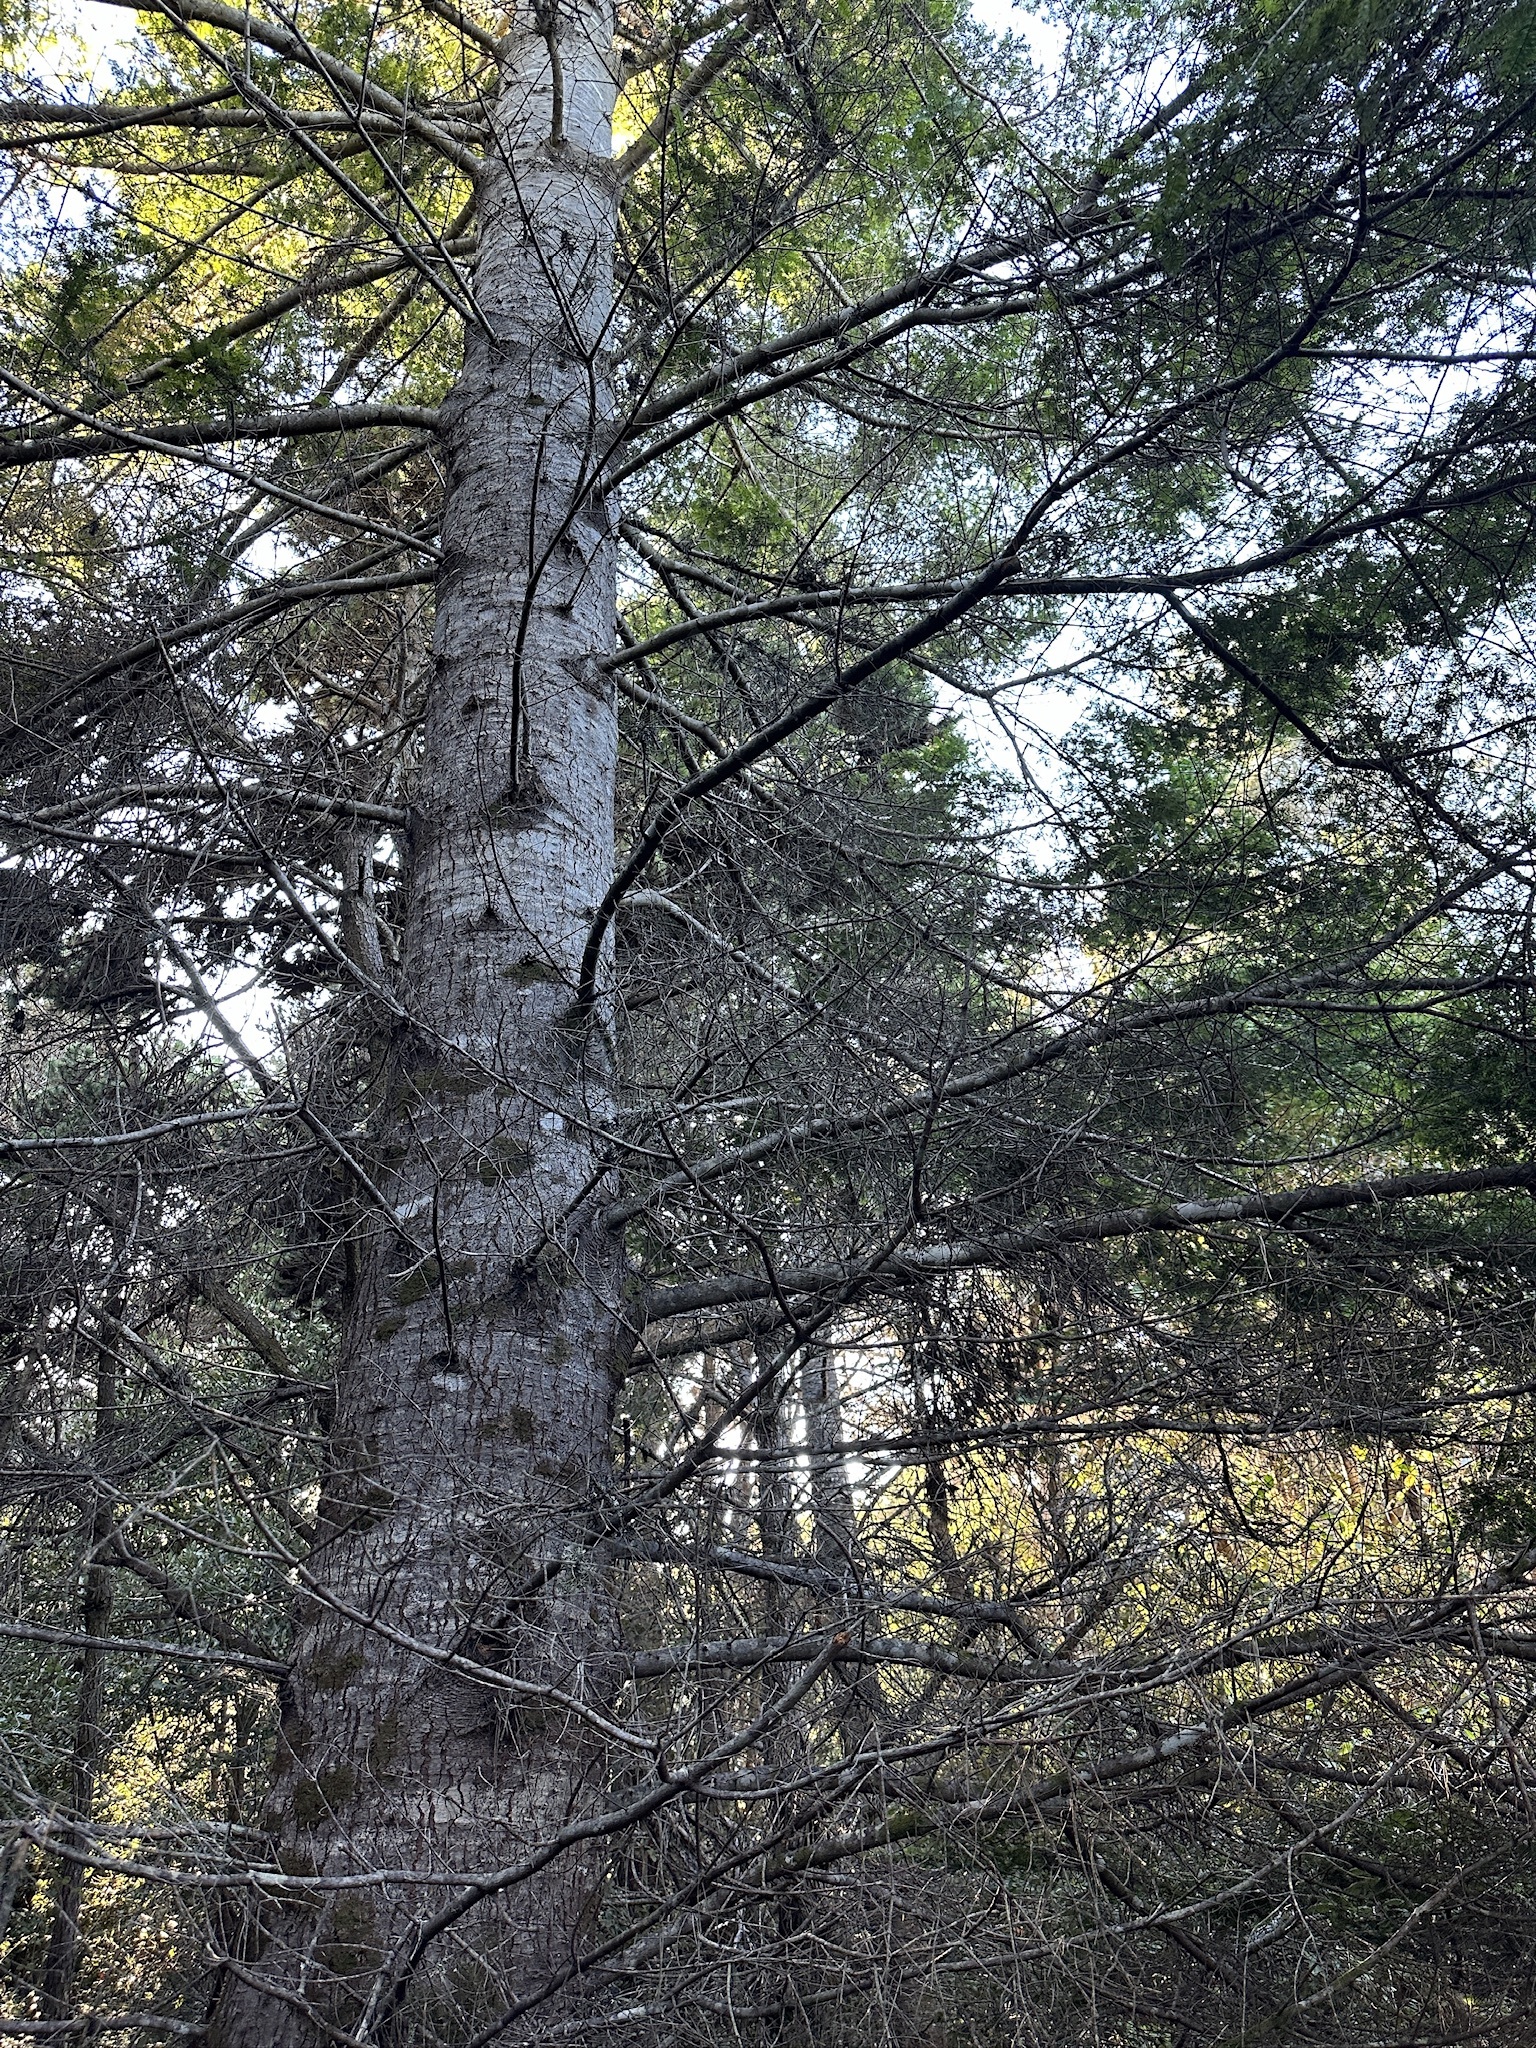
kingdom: Plantae
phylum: Tracheophyta
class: Pinopsida
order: Pinales
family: Pinaceae
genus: Abies
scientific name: Abies grandis
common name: Giant fir
